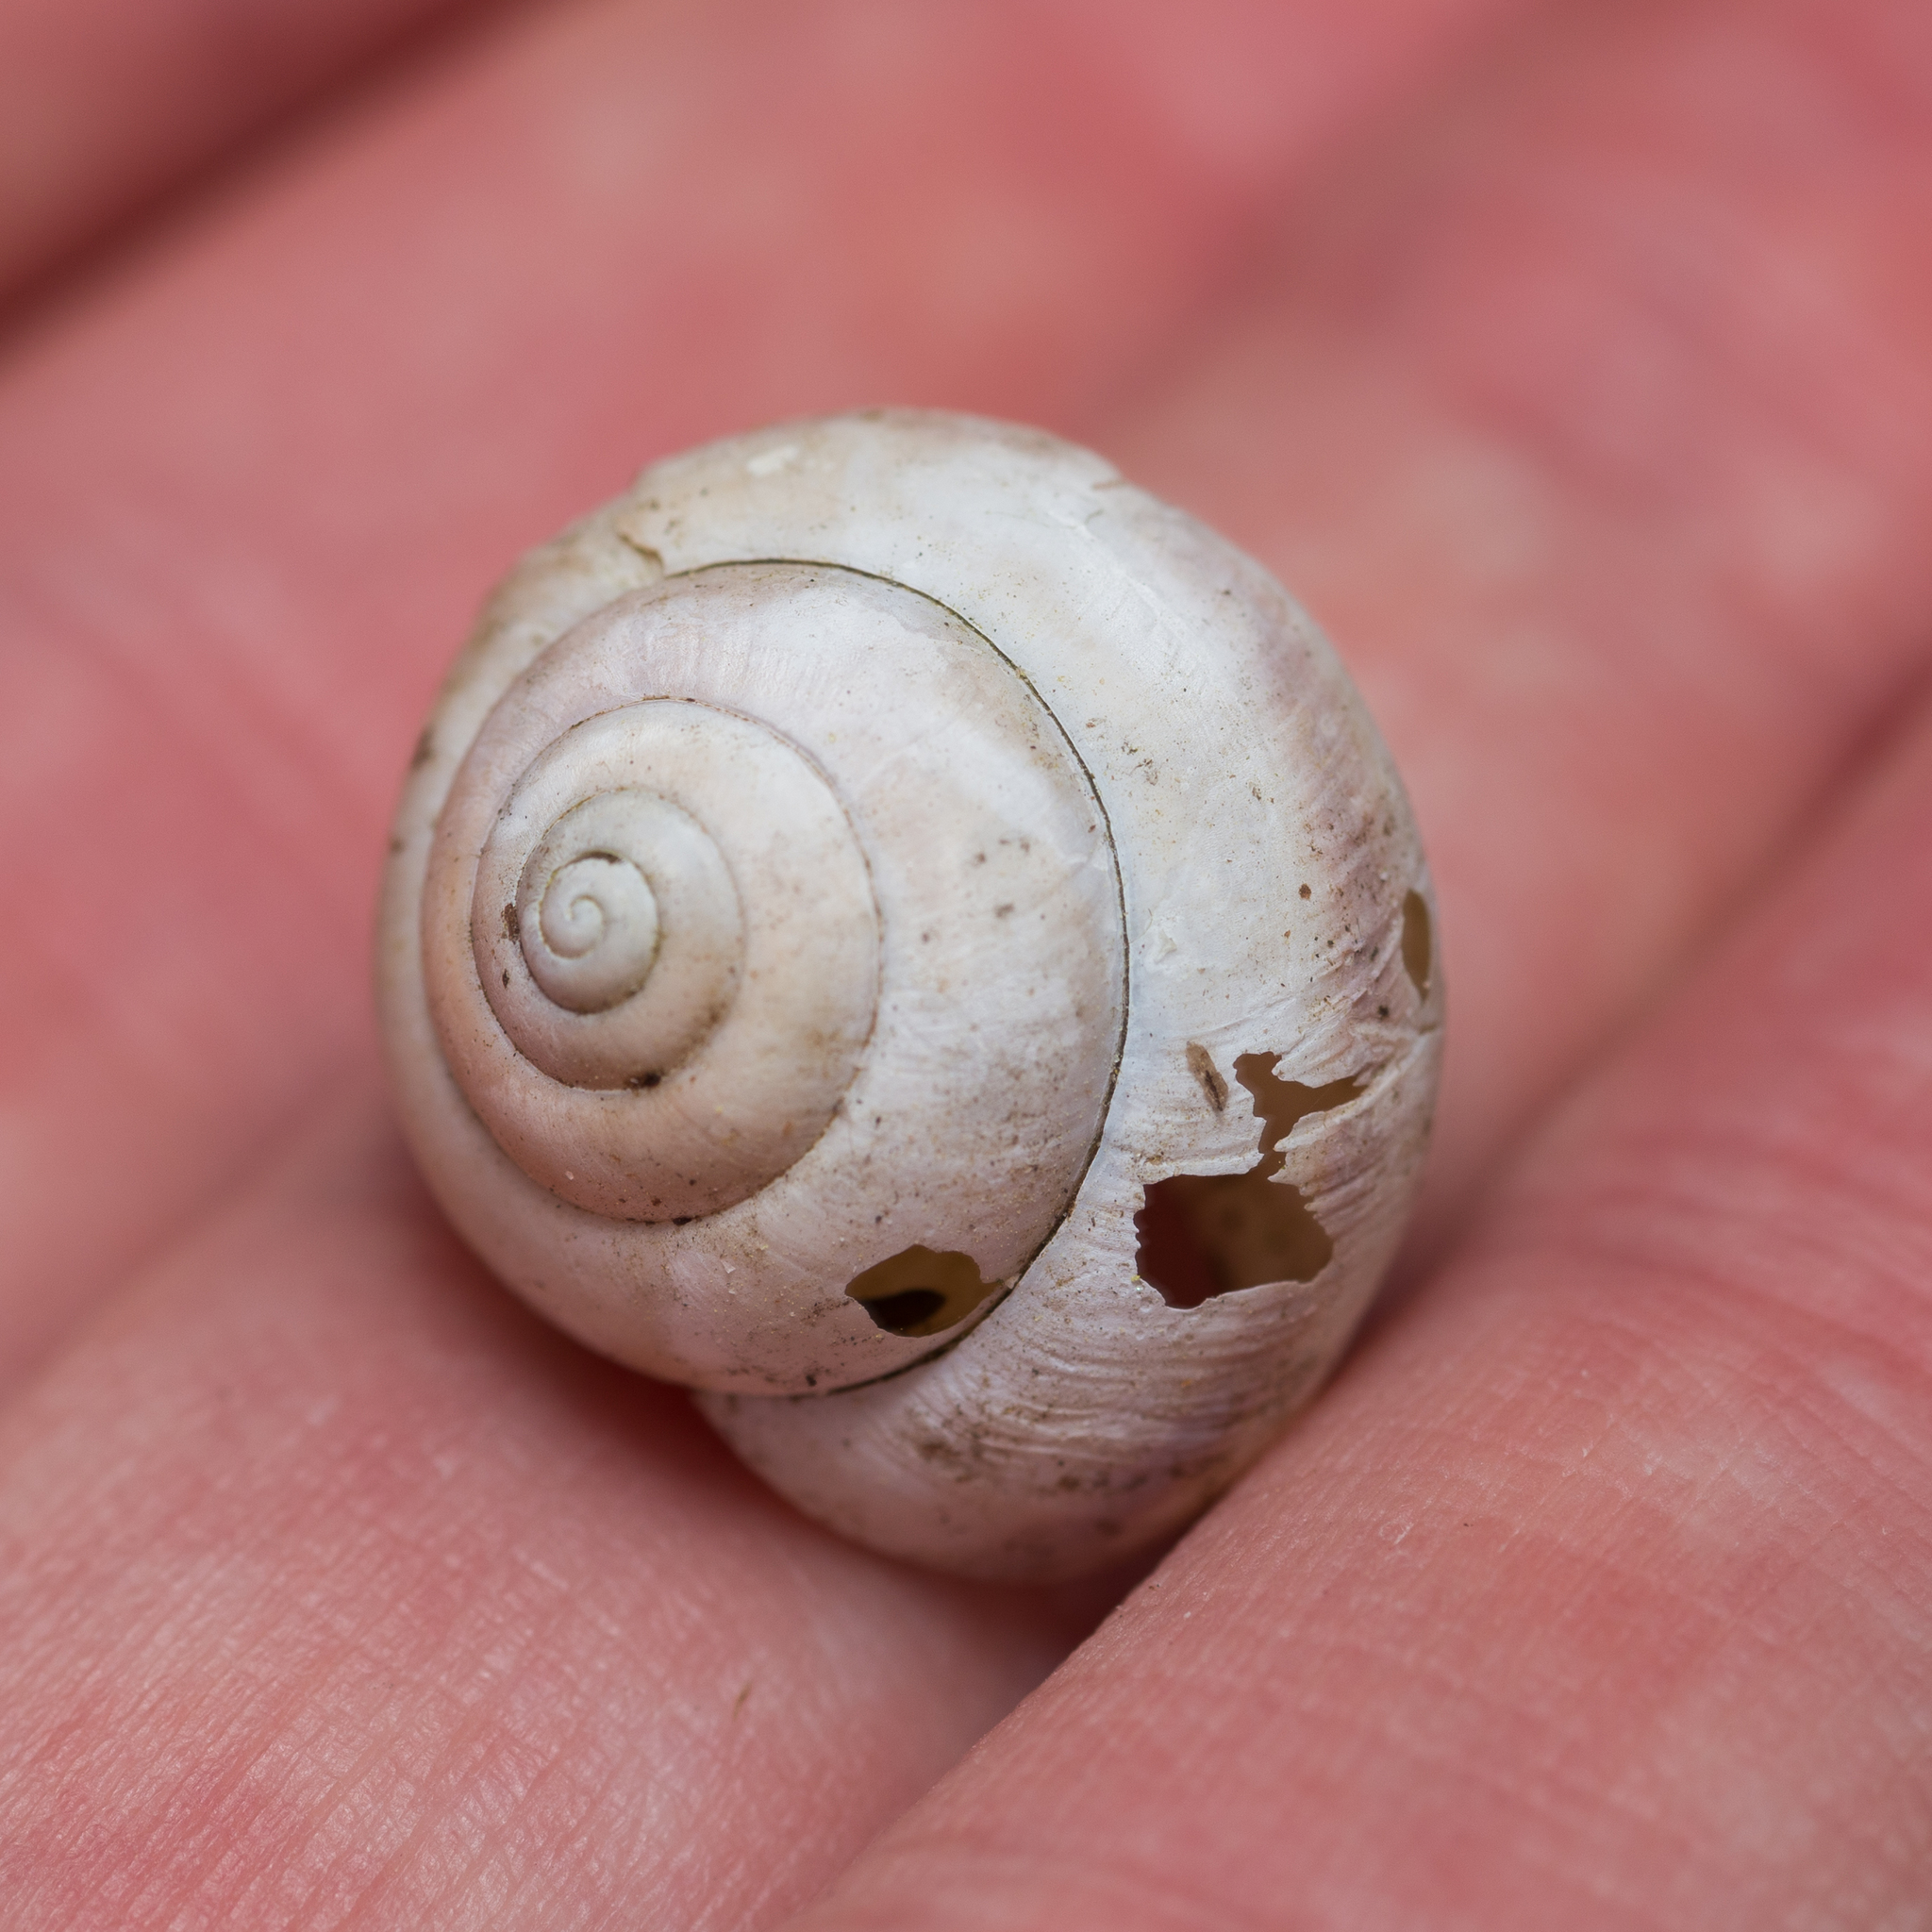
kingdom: Animalia
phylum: Mollusca
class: Gastropoda
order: Stylommatophora
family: Camaenidae
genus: Fruticicola
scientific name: Fruticicola fruticum
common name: Bush snail
